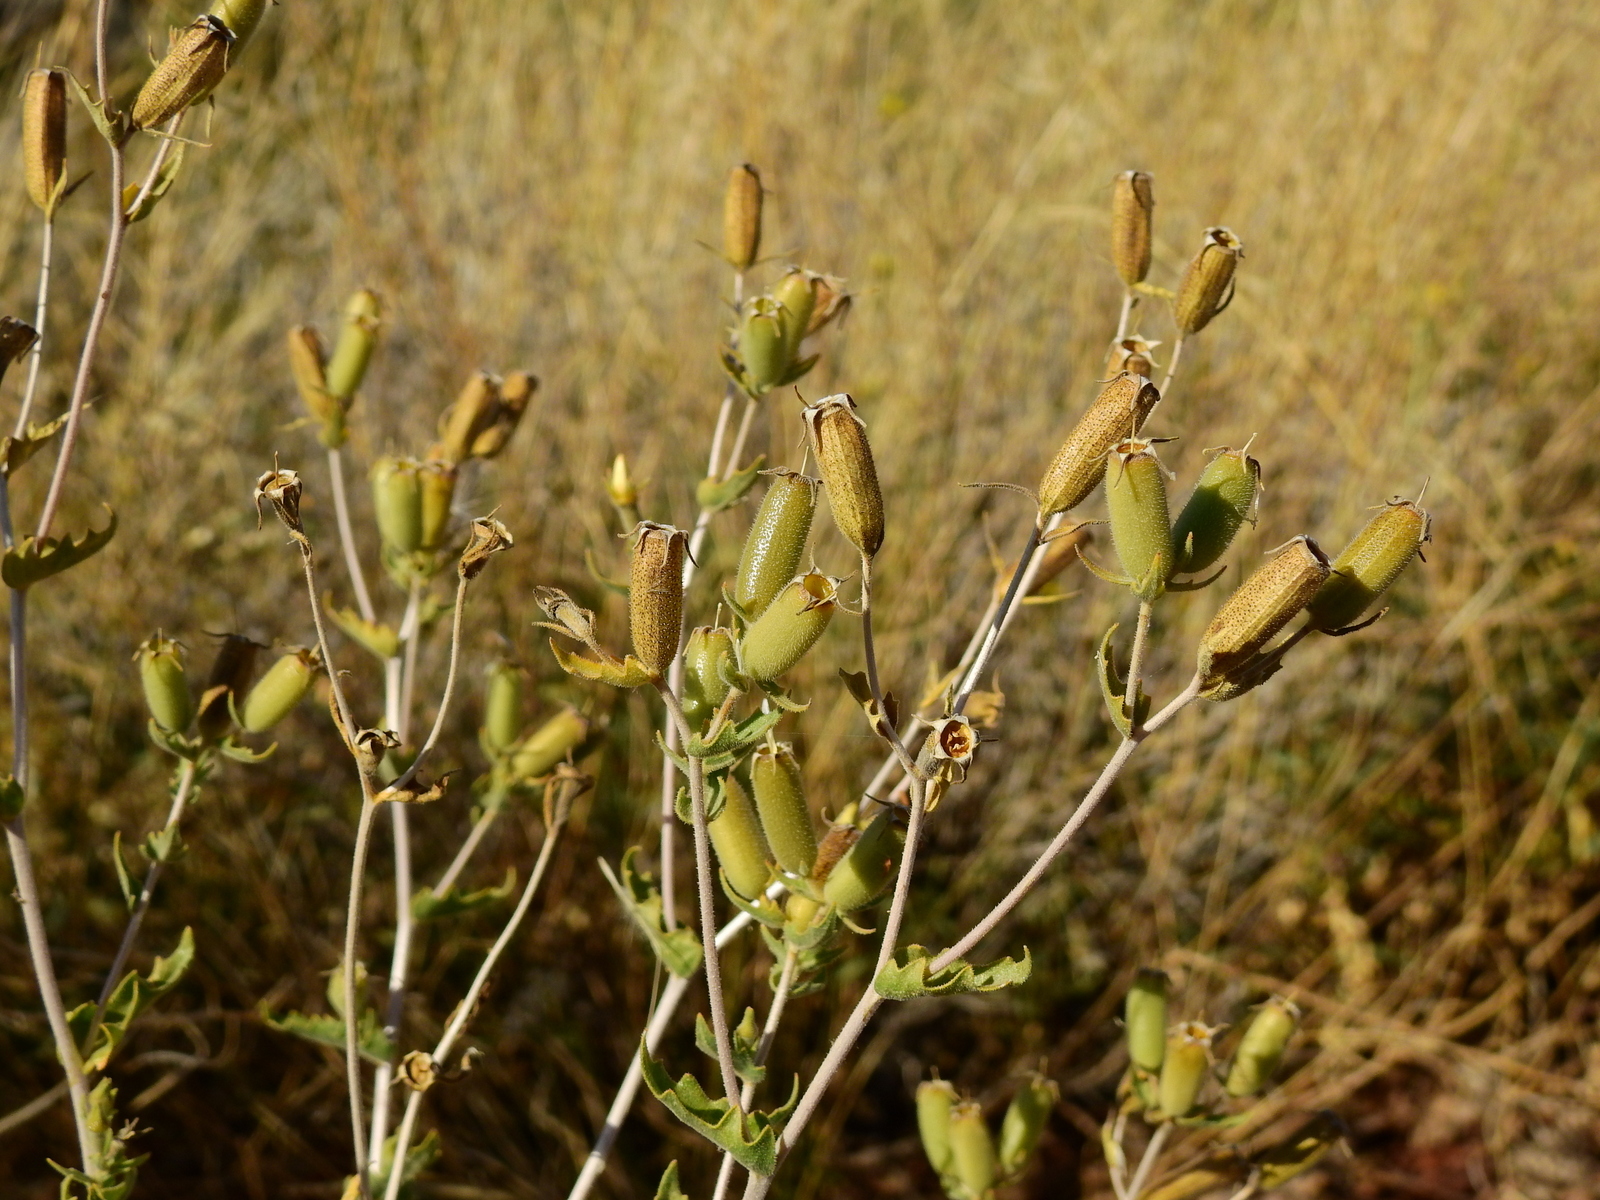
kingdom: Plantae
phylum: Tracheophyta
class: Magnoliopsida
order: Cornales
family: Loasaceae
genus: Mentzelia
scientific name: Mentzelia albescens
